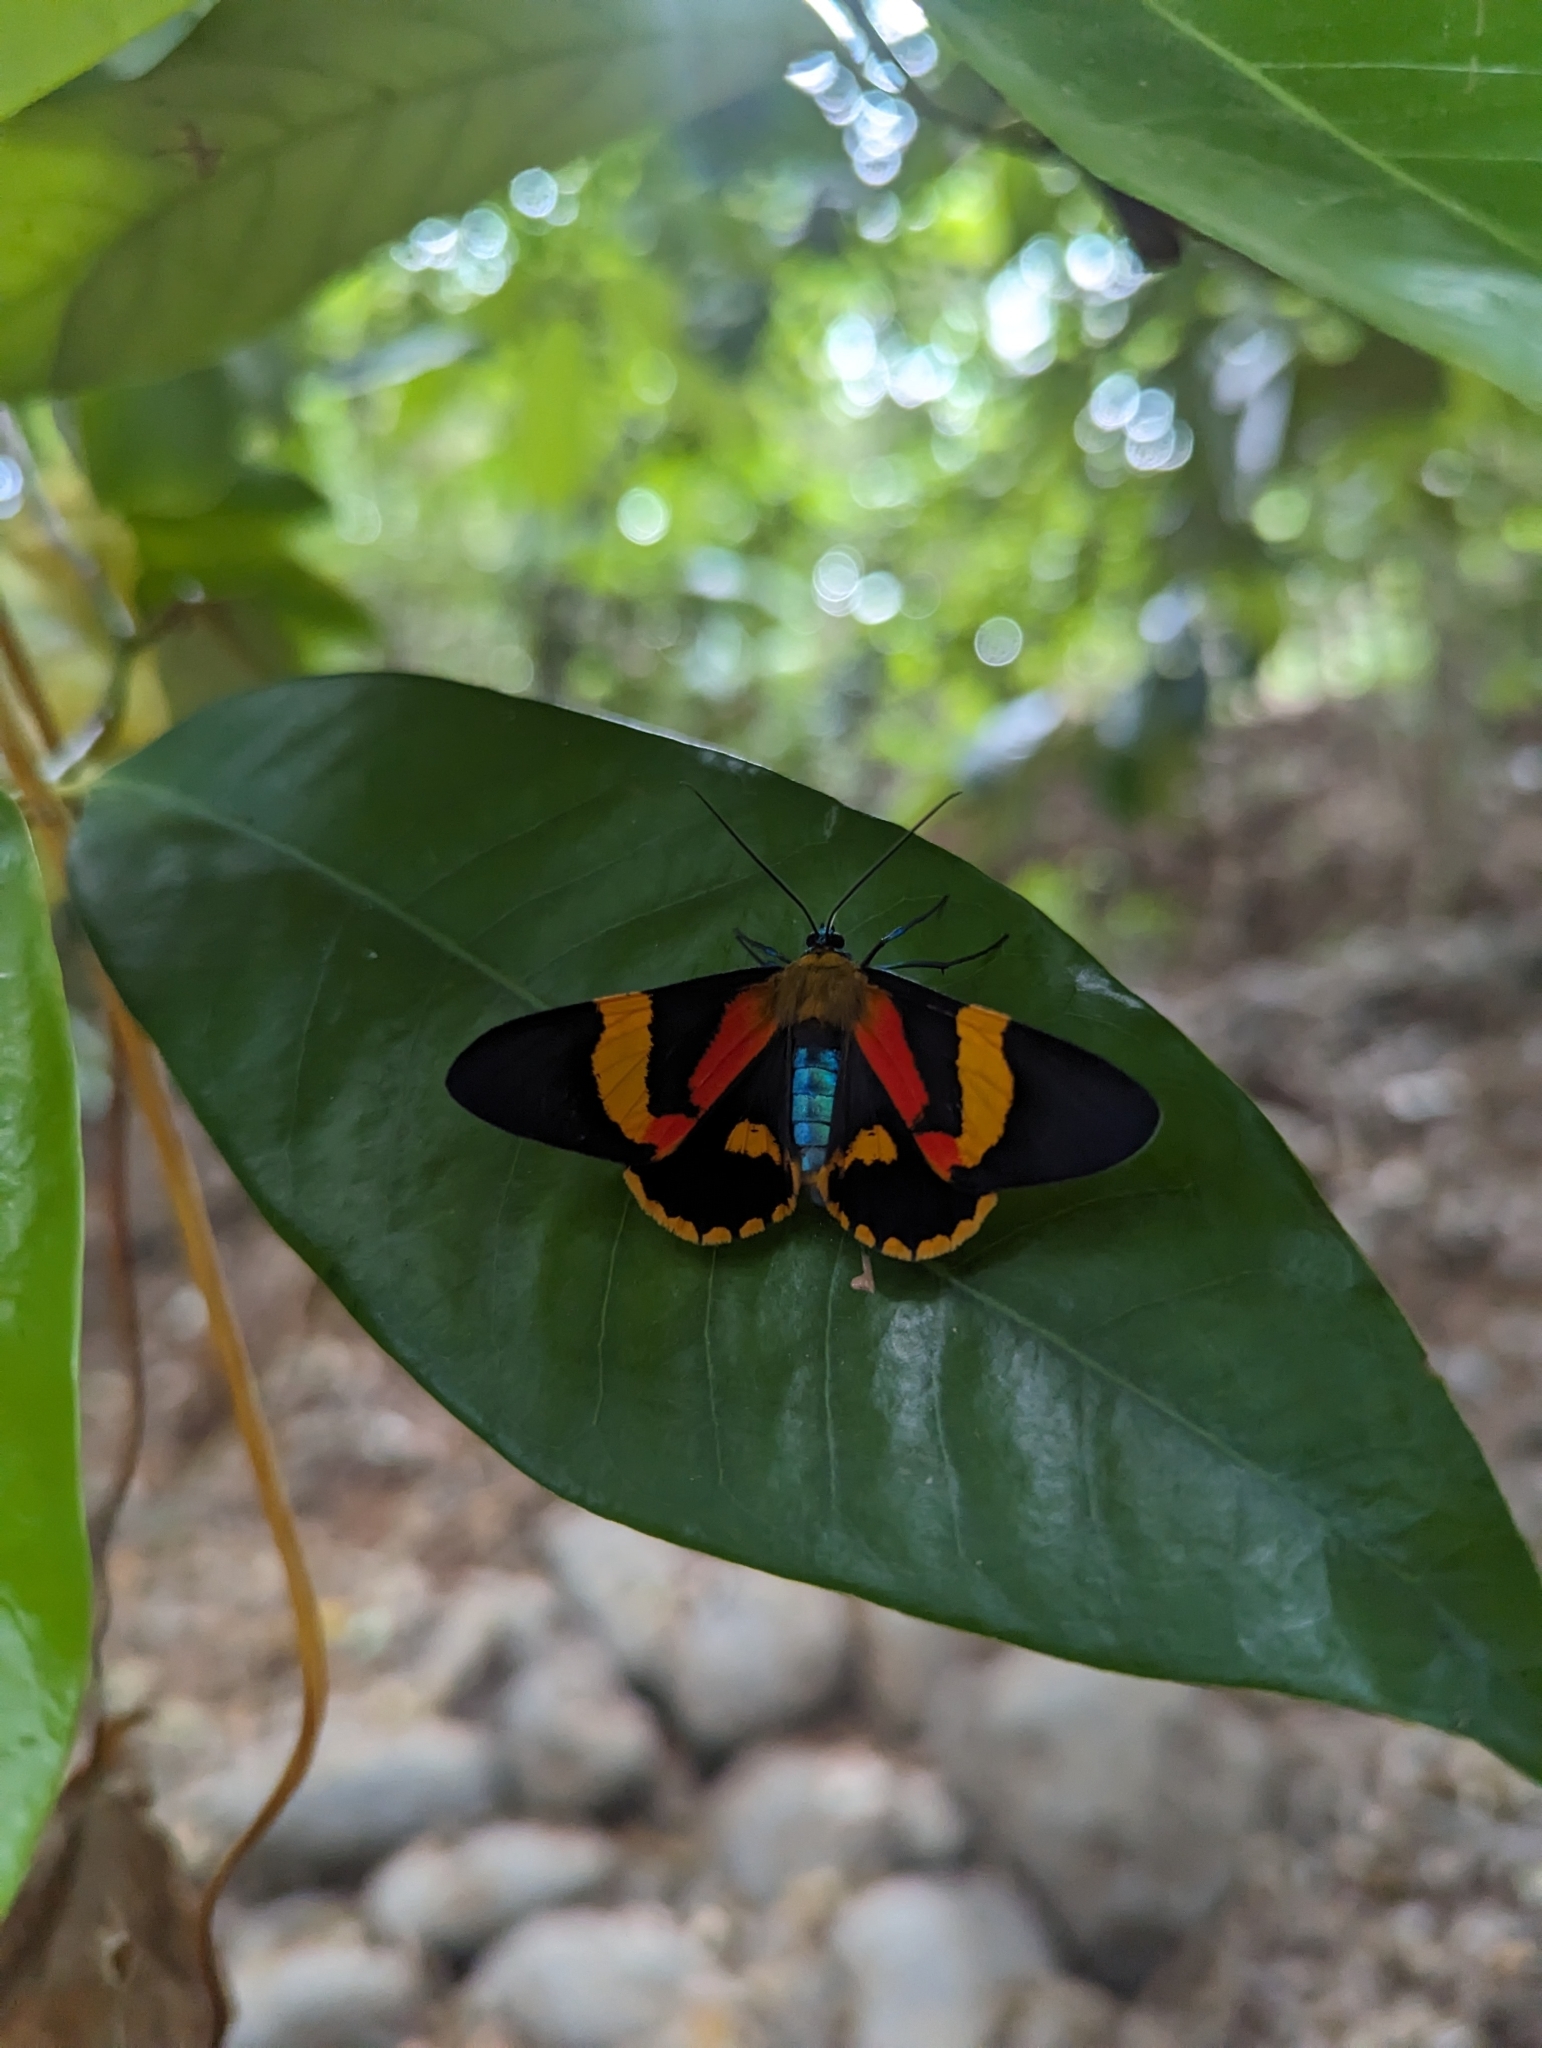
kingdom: Animalia
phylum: Arthropoda
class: Insecta
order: Lepidoptera
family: Geometridae
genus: Milionia
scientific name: Milionia queenslandica
